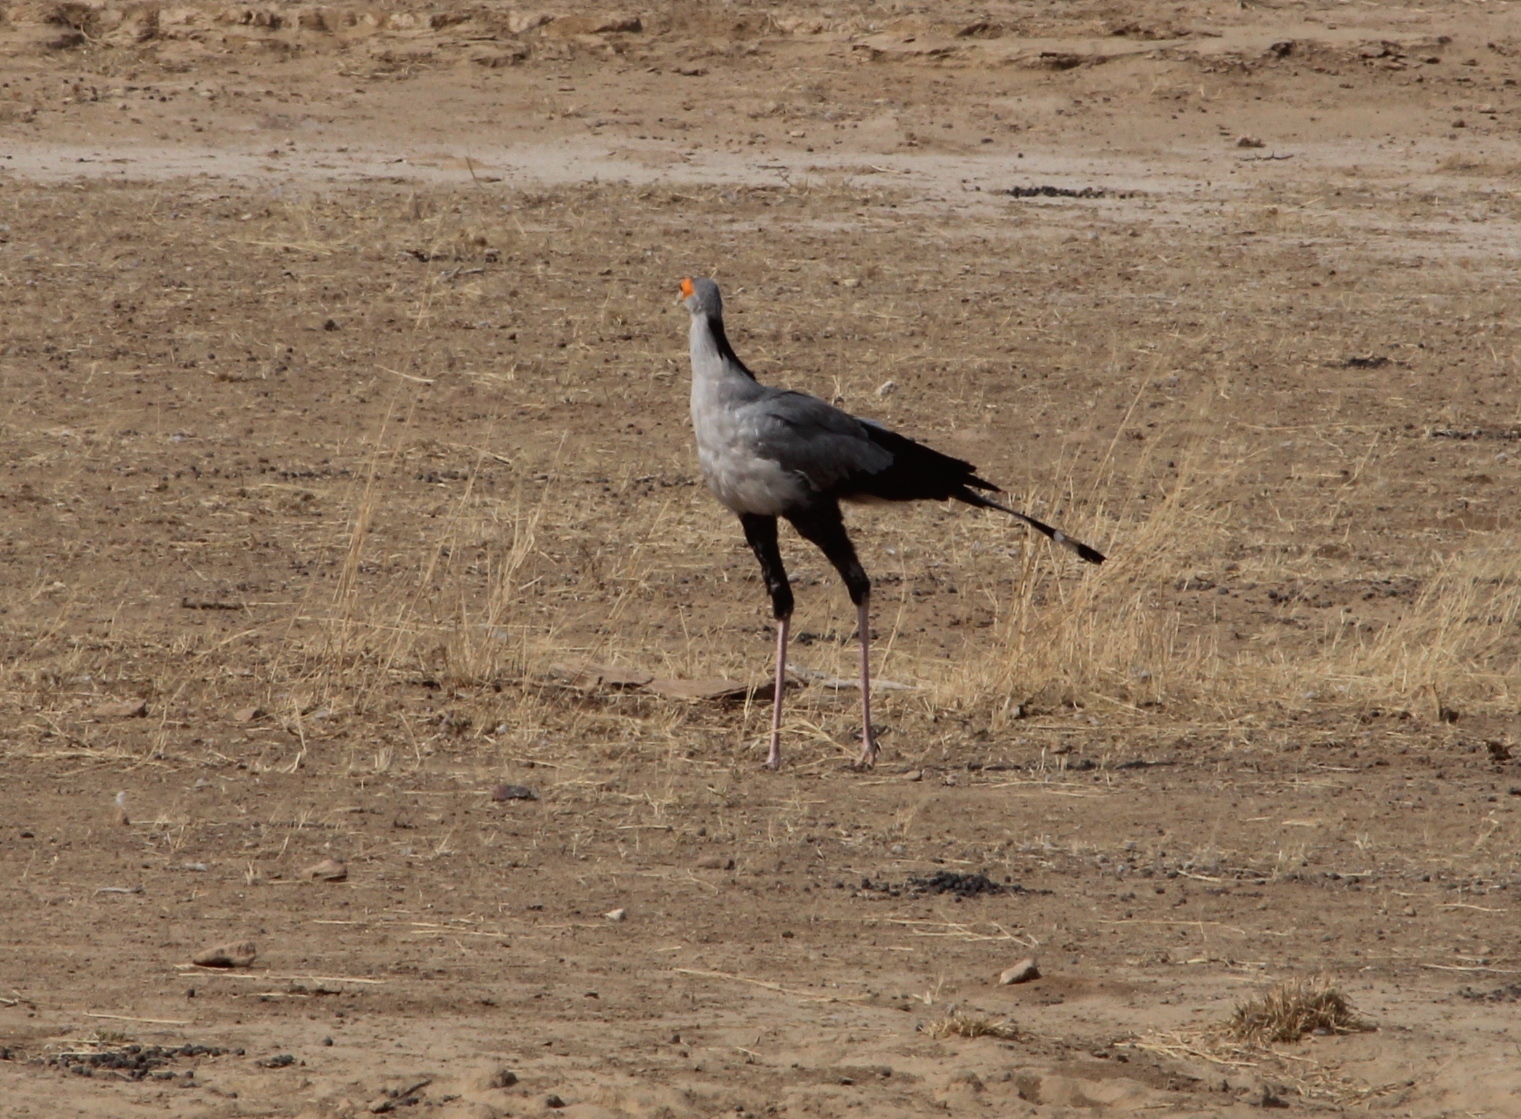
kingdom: Animalia
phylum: Chordata
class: Aves
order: Accipitriformes
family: Sagittariidae
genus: Sagittarius
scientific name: Sagittarius serpentarius
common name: Secretarybird
